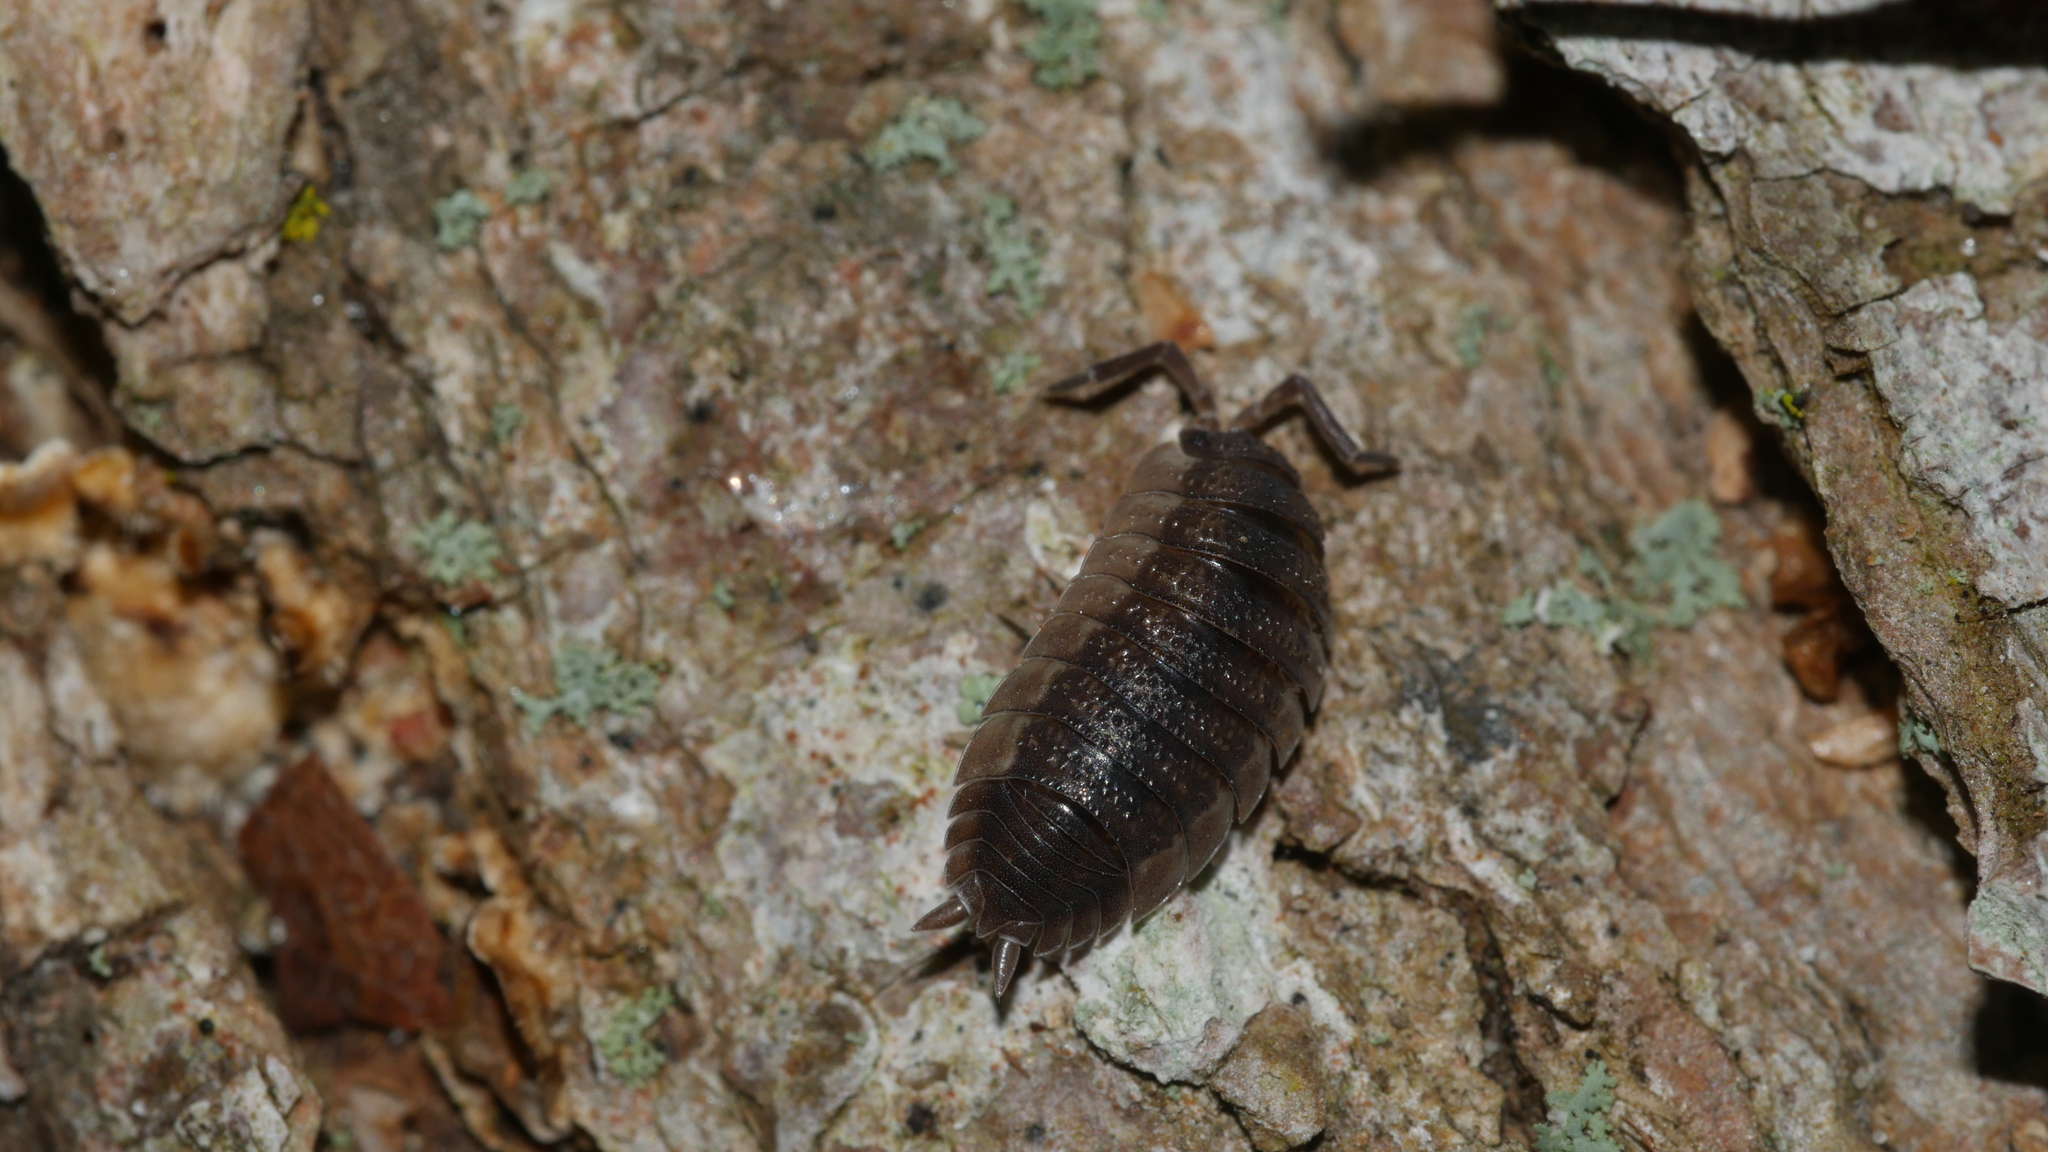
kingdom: Animalia
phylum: Arthropoda
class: Malacostraca
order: Isopoda
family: Porcellionidae
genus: Porcellio
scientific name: Porcellio scaber
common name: Common rough woodlouse
